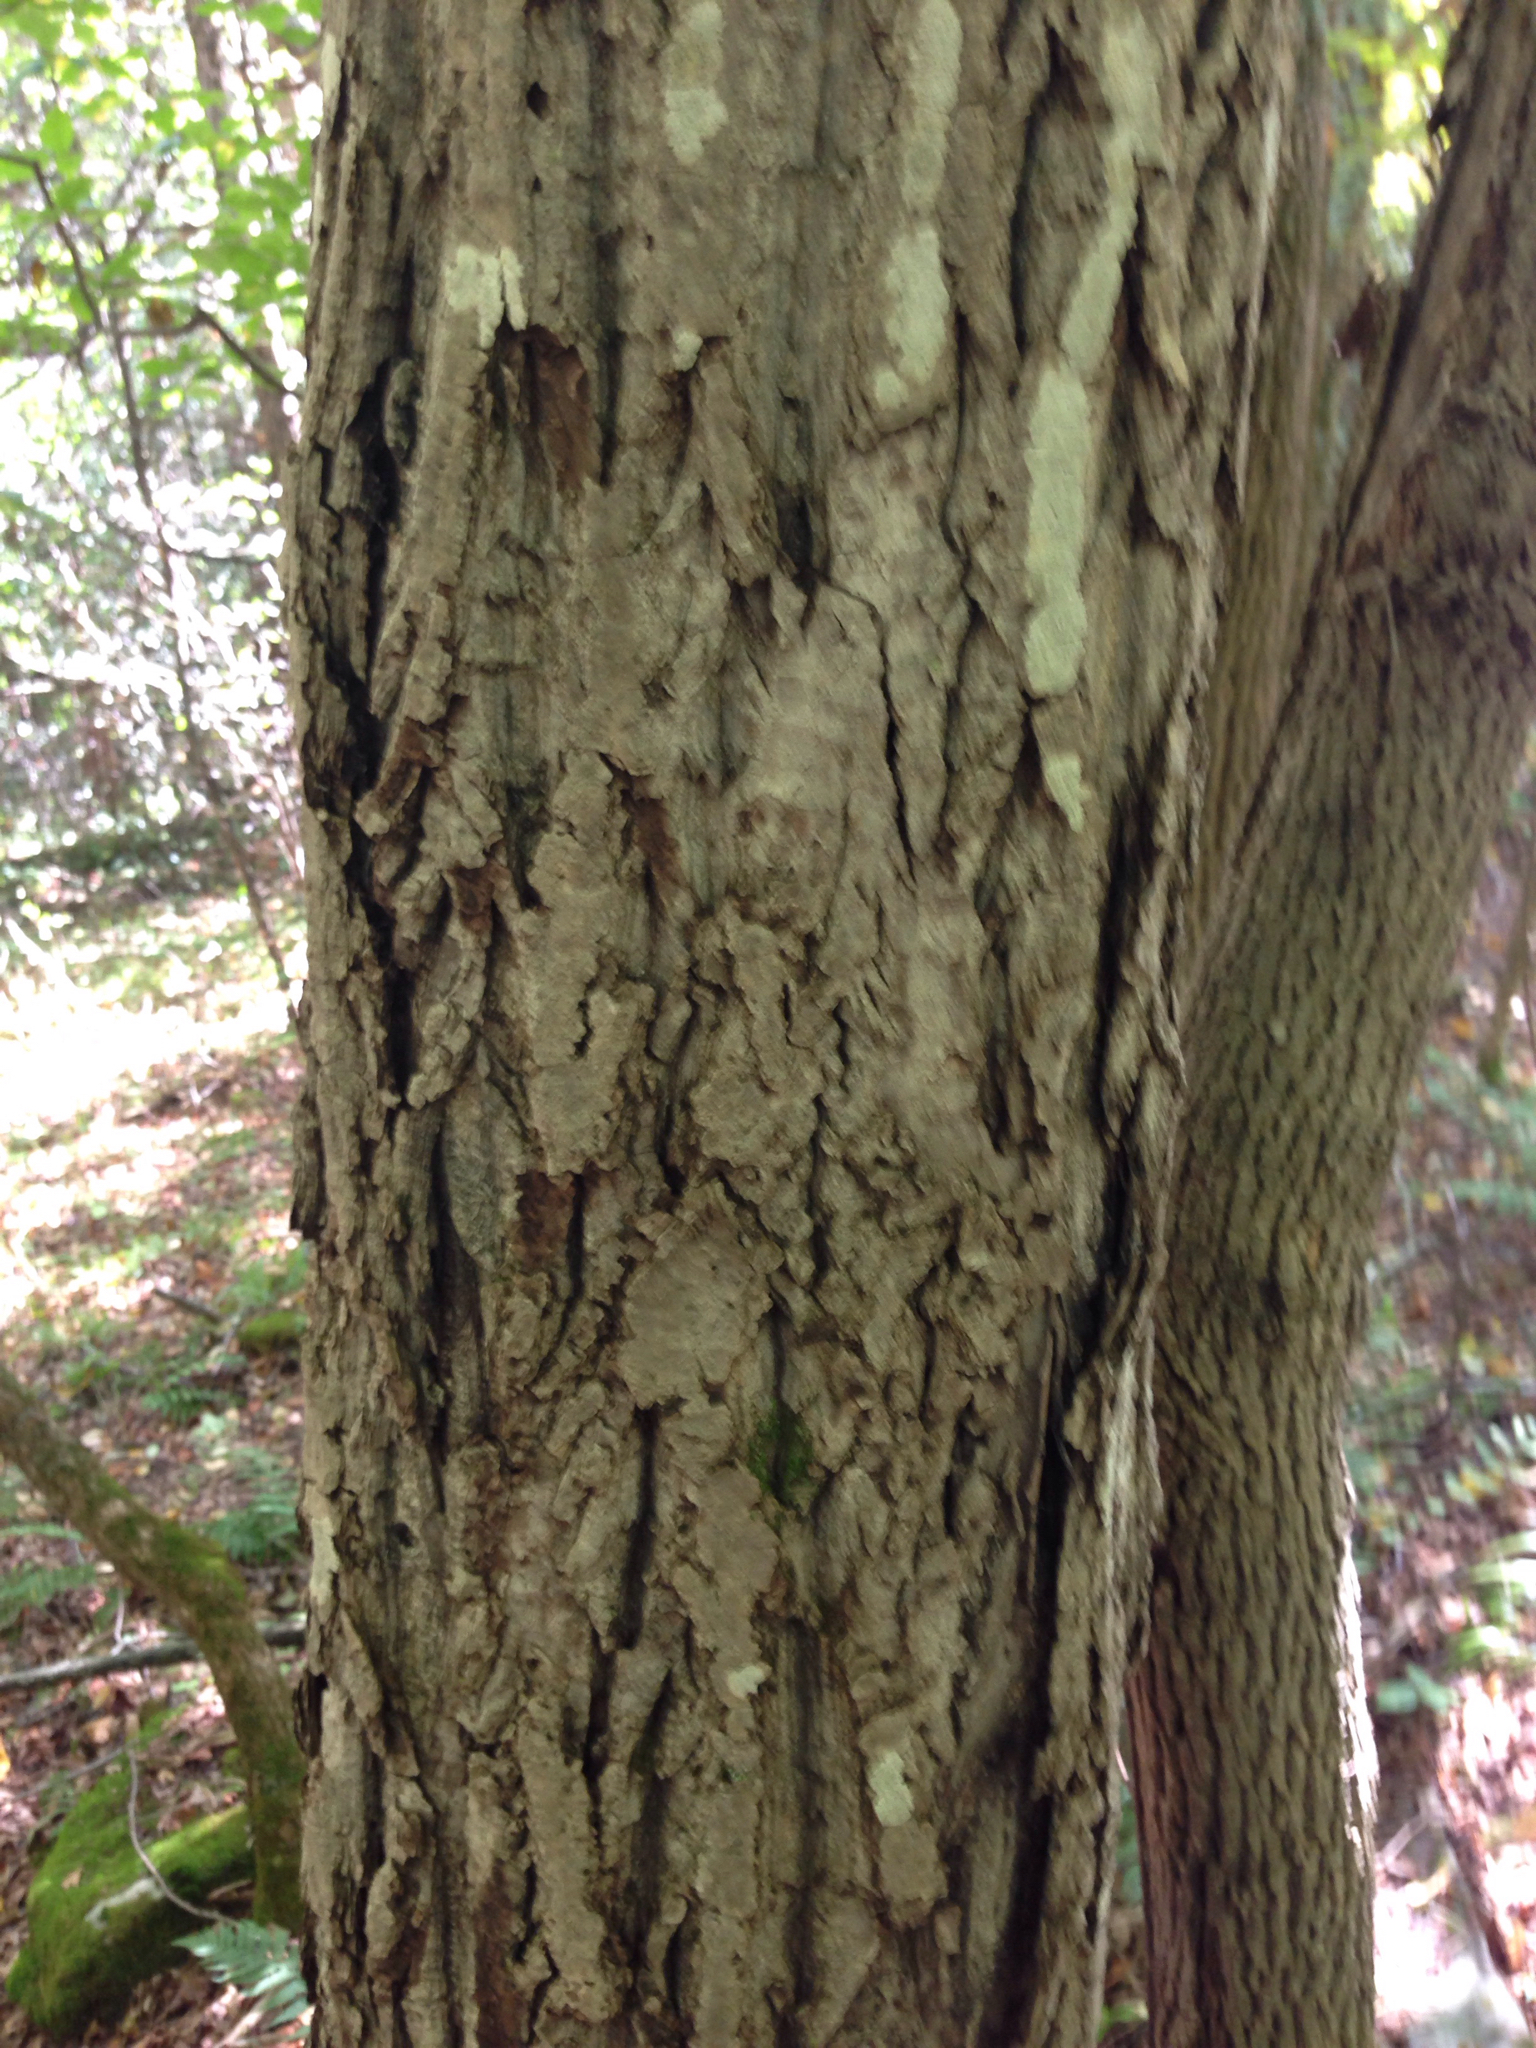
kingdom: Plantae
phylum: Tracheophyta
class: Magnoliopsida
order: Fagales
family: Juglandaceae
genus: Juglans
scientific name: Juglans cinerea
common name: Butternut
